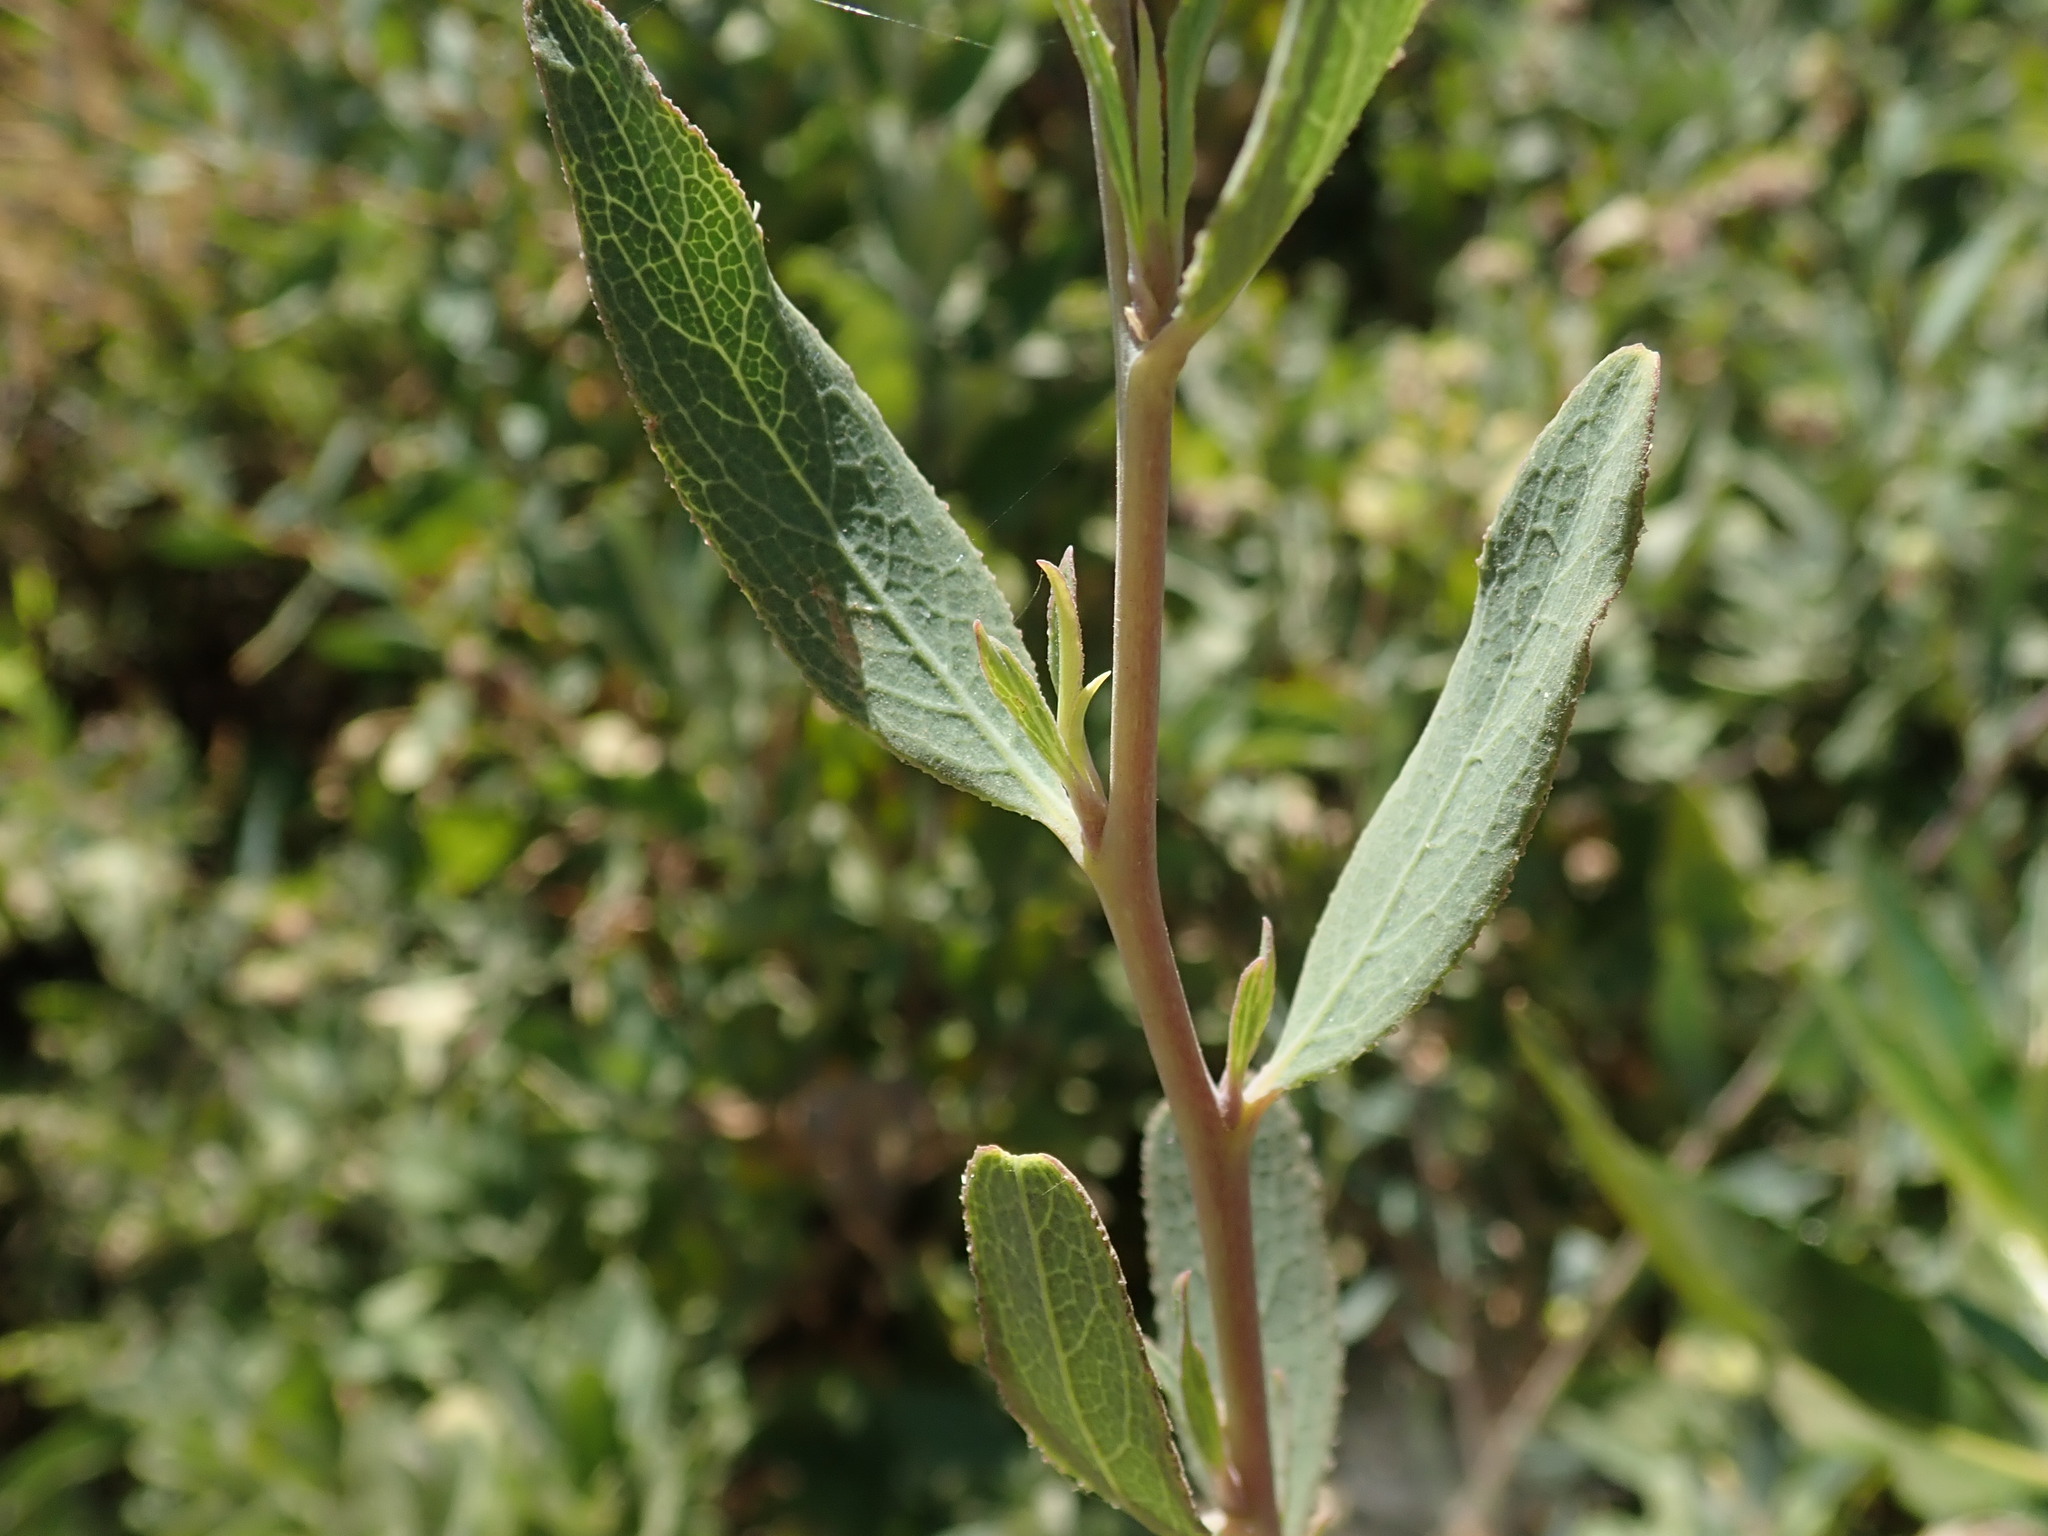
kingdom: Plantae
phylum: Tracheophyta
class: Magnoliopsida
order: Ranunculales
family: Papaveraceae
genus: Dendromecon
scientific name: Dendromecon rigida
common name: Tree poppy
